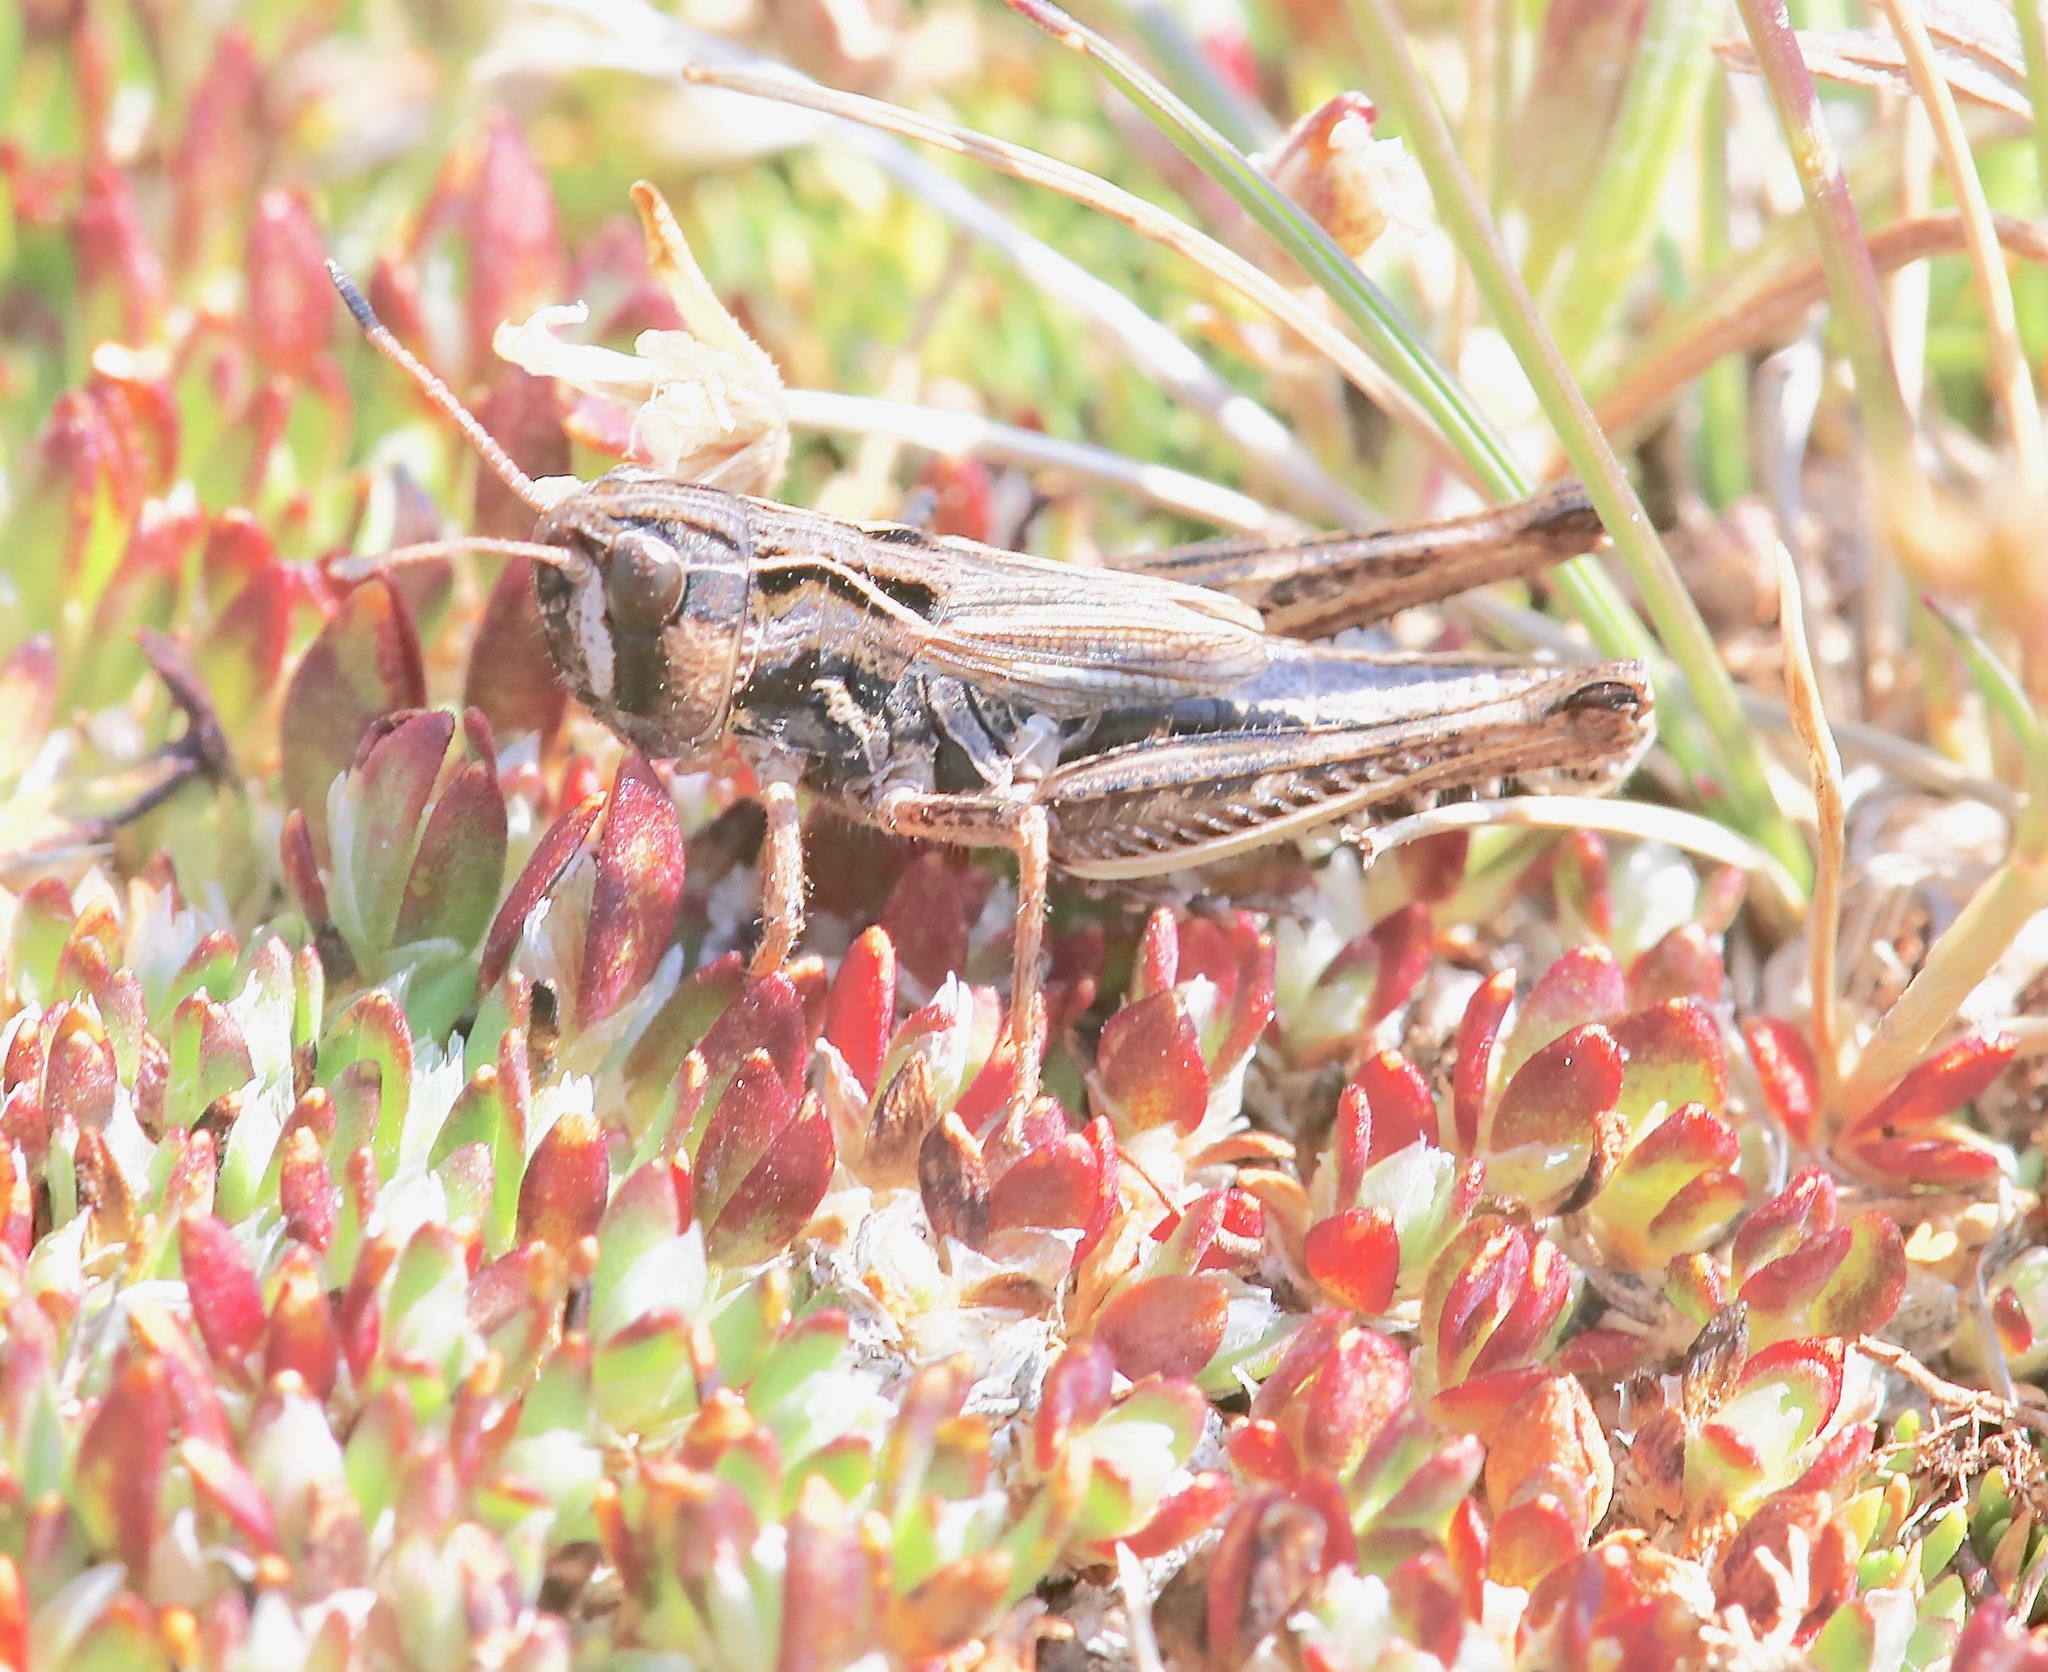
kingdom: Animalia
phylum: Arthropoda
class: Insecta
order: Orthoptera
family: Acrididae
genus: Aeropedellus
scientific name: Aeropedellus clavatus
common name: Clubhorned grasshopper
